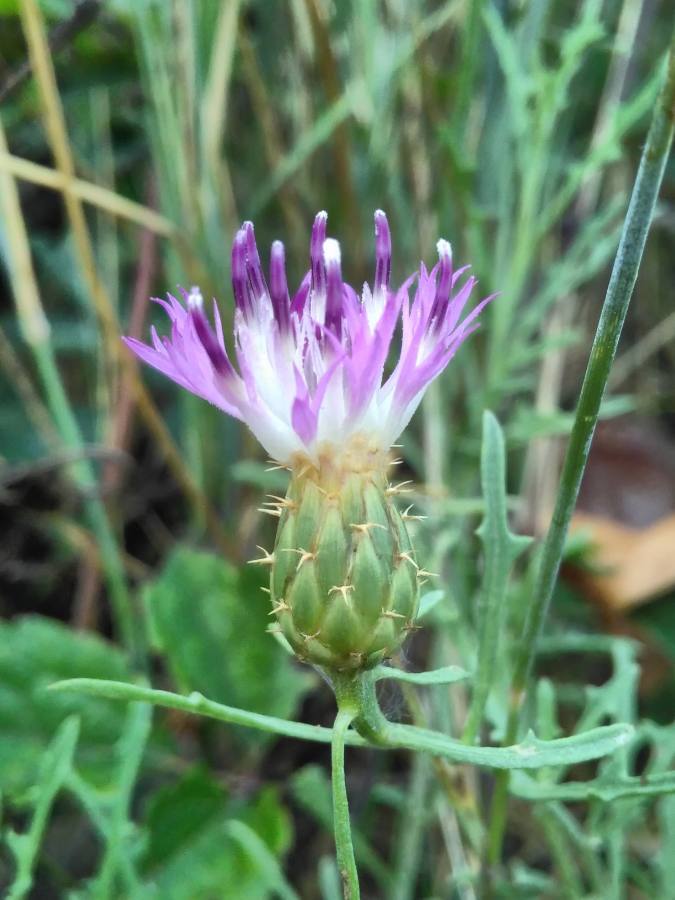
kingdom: Plantae
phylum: Tracheophyta
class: Magnoliopsida
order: Asterales
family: Asteraceae
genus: Centaurea
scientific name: Centaurea aspera
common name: Rough star-thistle
